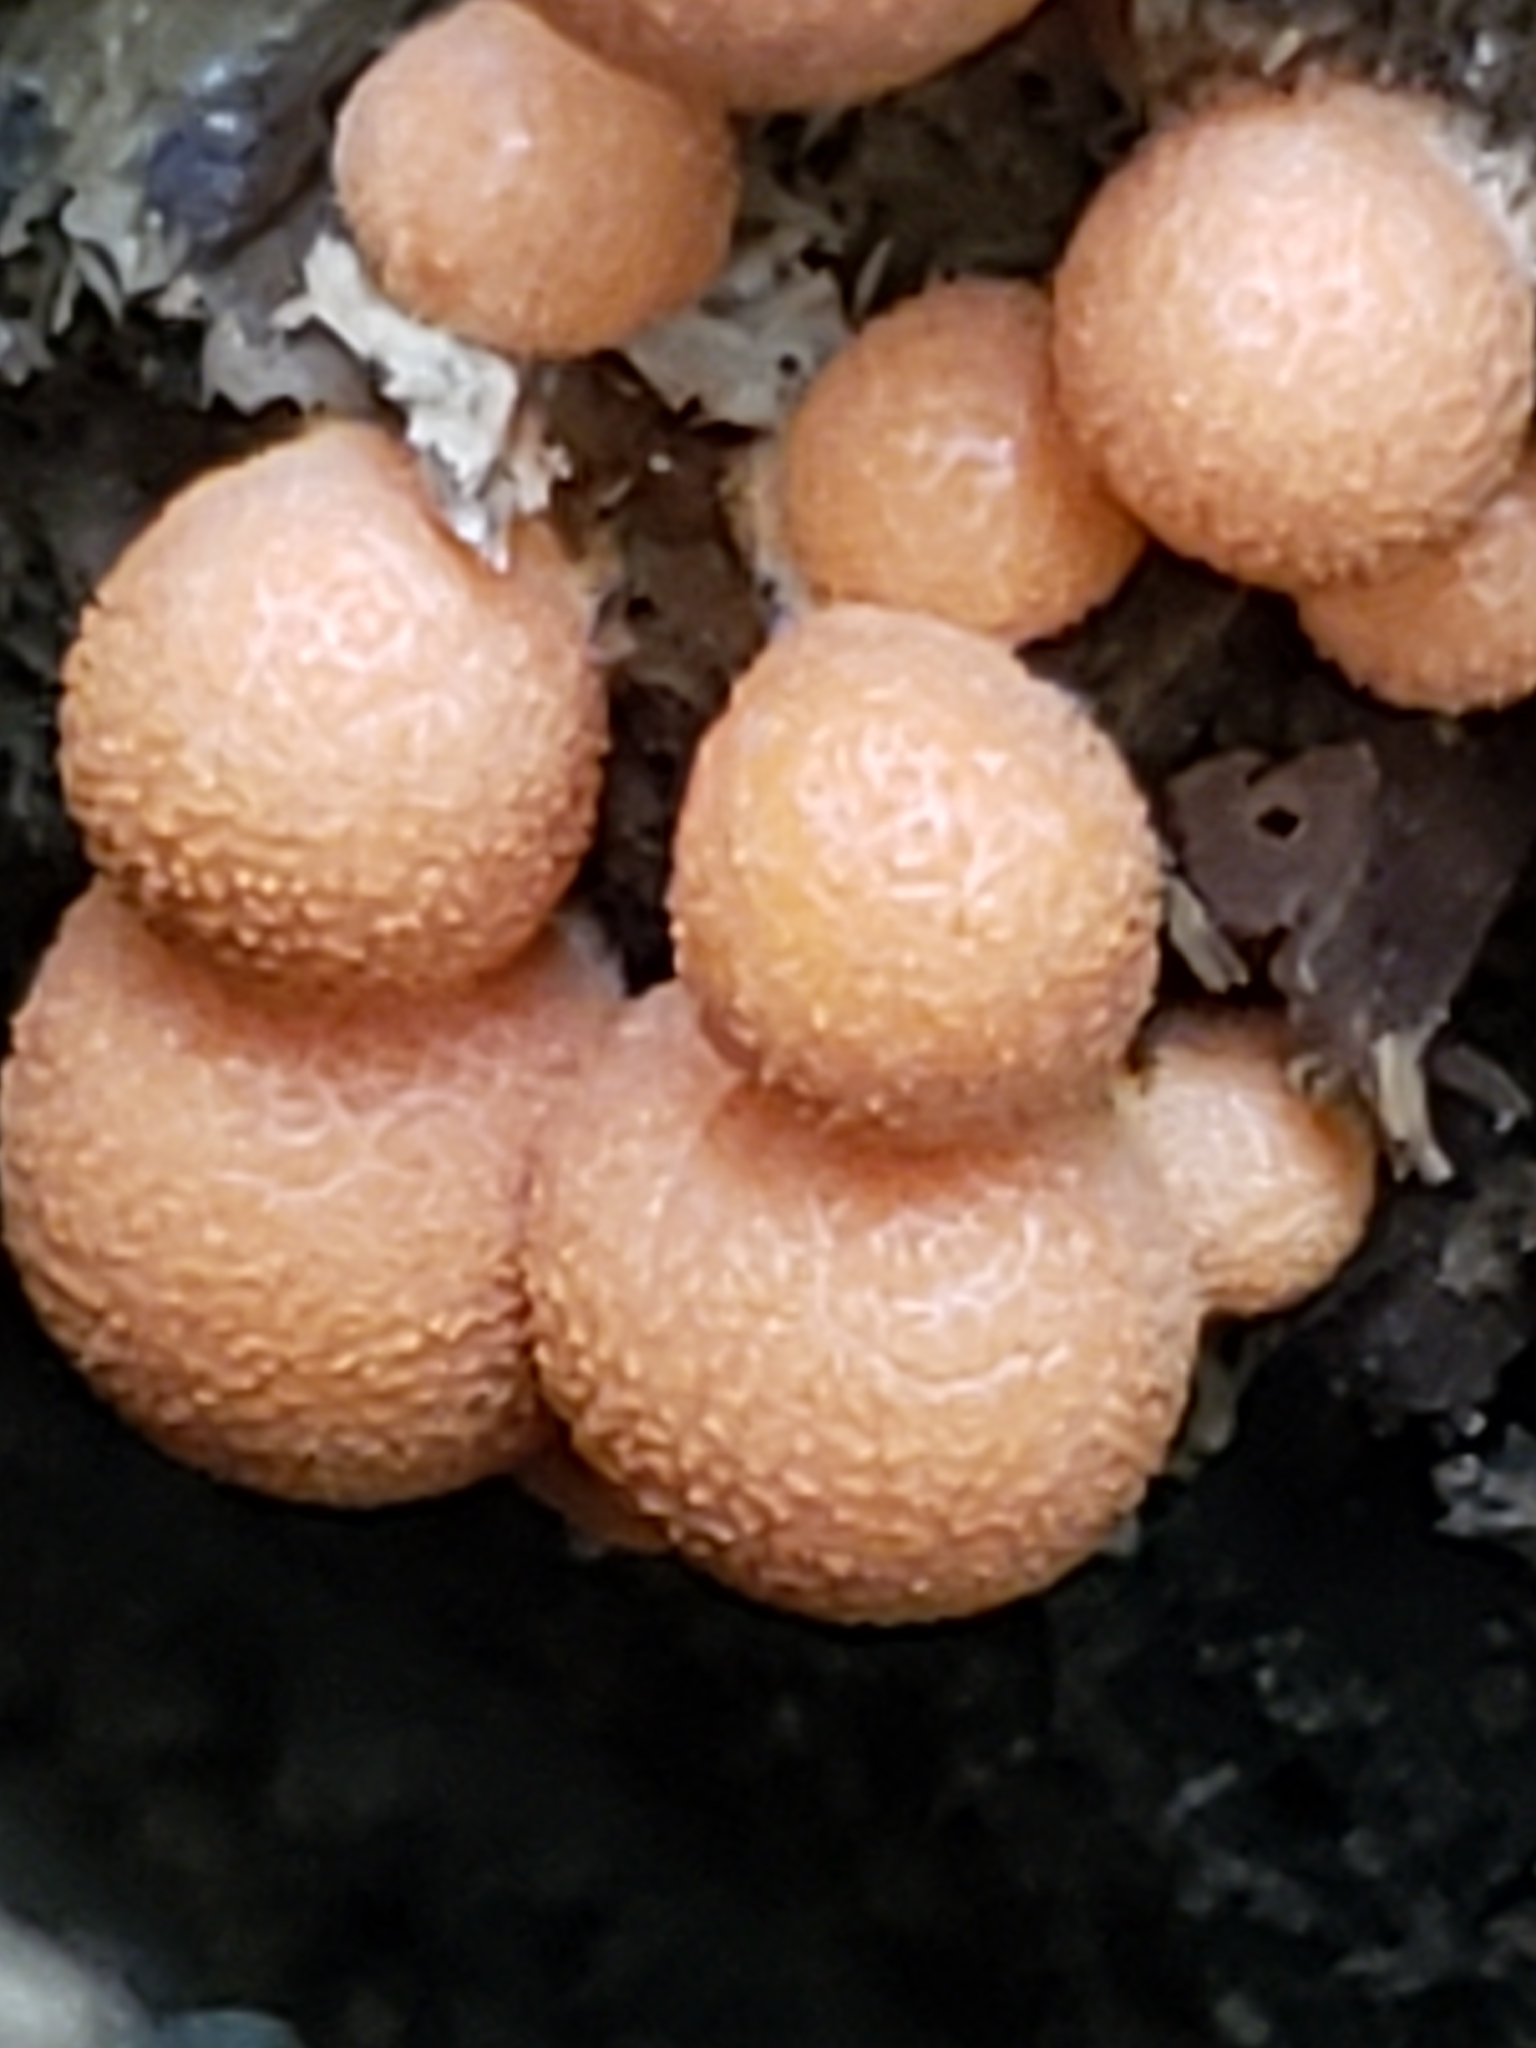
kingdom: Protozoa
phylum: Mycetozoa
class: Myxomycetes
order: Cribrariales
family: Tubiferaceae
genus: Lycogala
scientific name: Lycogala epidendrum
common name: Wolf's milk
